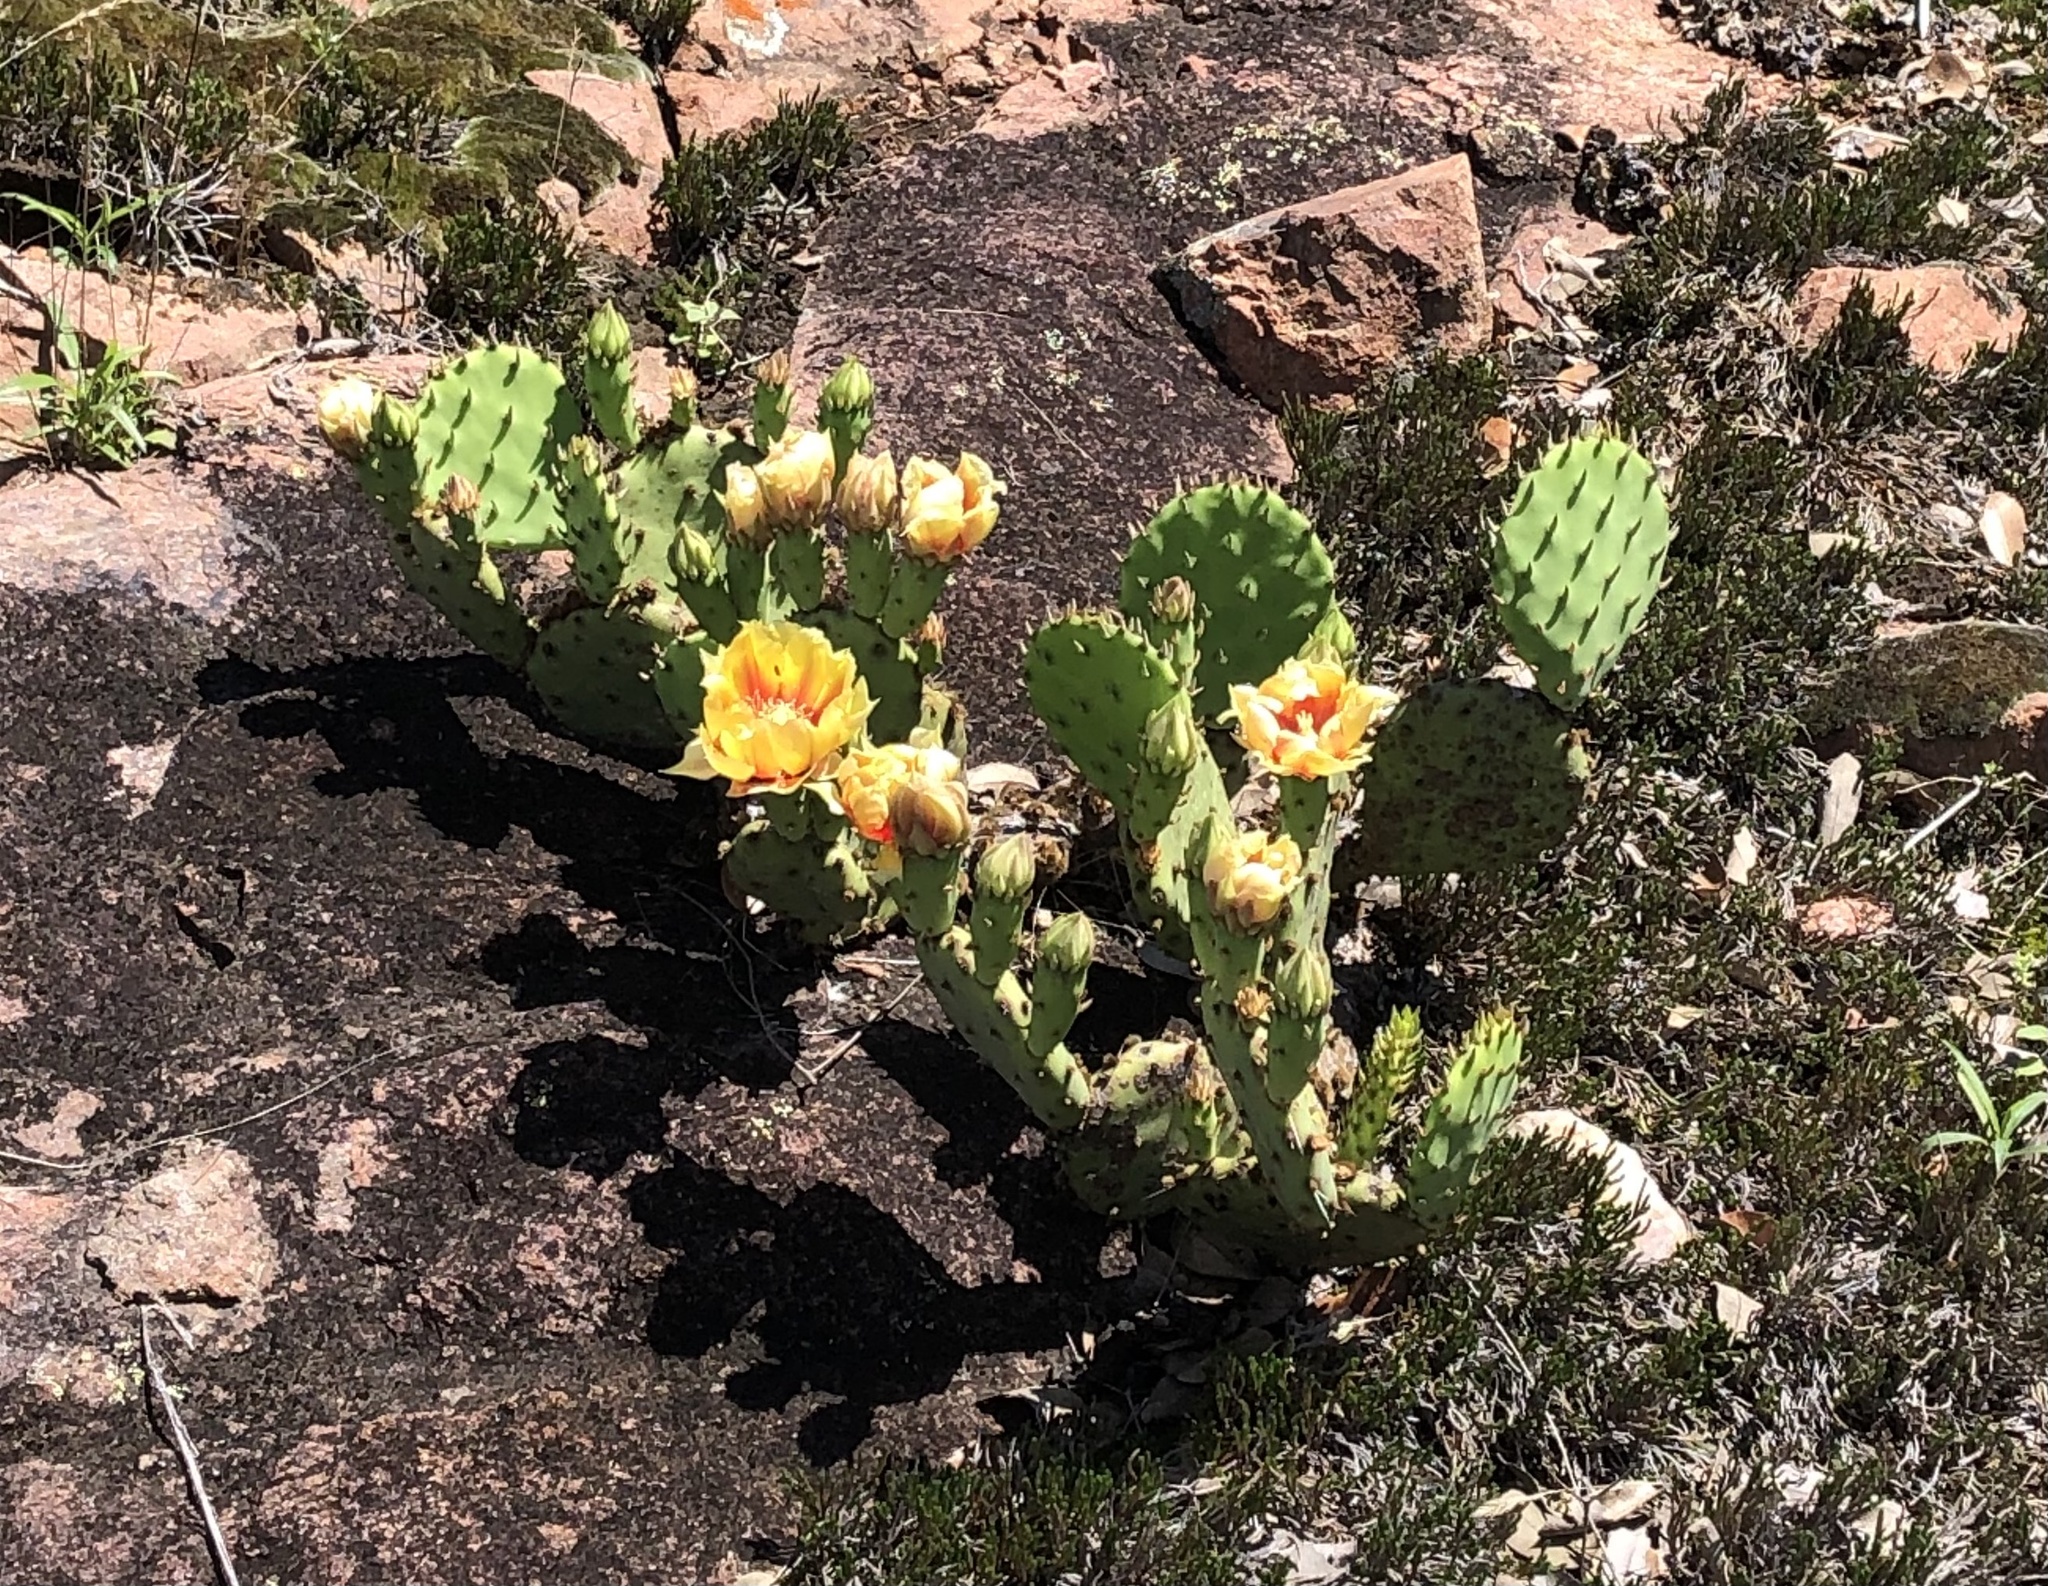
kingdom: Plantae
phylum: Tracheophyta
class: Magnoliopsida
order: Caryophyllales
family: Cactaceae
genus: Opuntia
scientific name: Opuntia macrorhiza
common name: Grassland pricklypear
